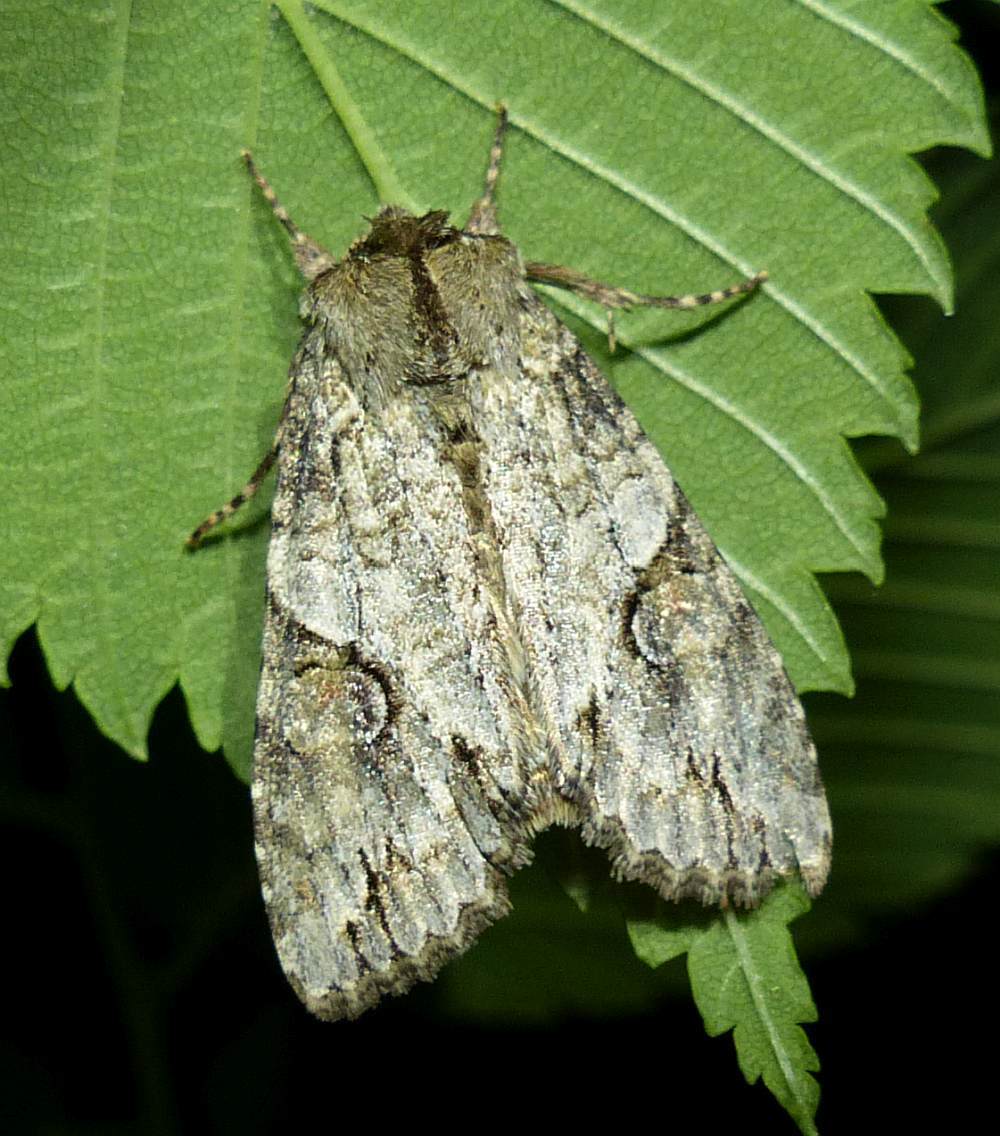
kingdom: Animalia
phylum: Arthropoda
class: Insecta
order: Lepidoptera
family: Noctuidae
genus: Achatia
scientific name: Achatia latex
